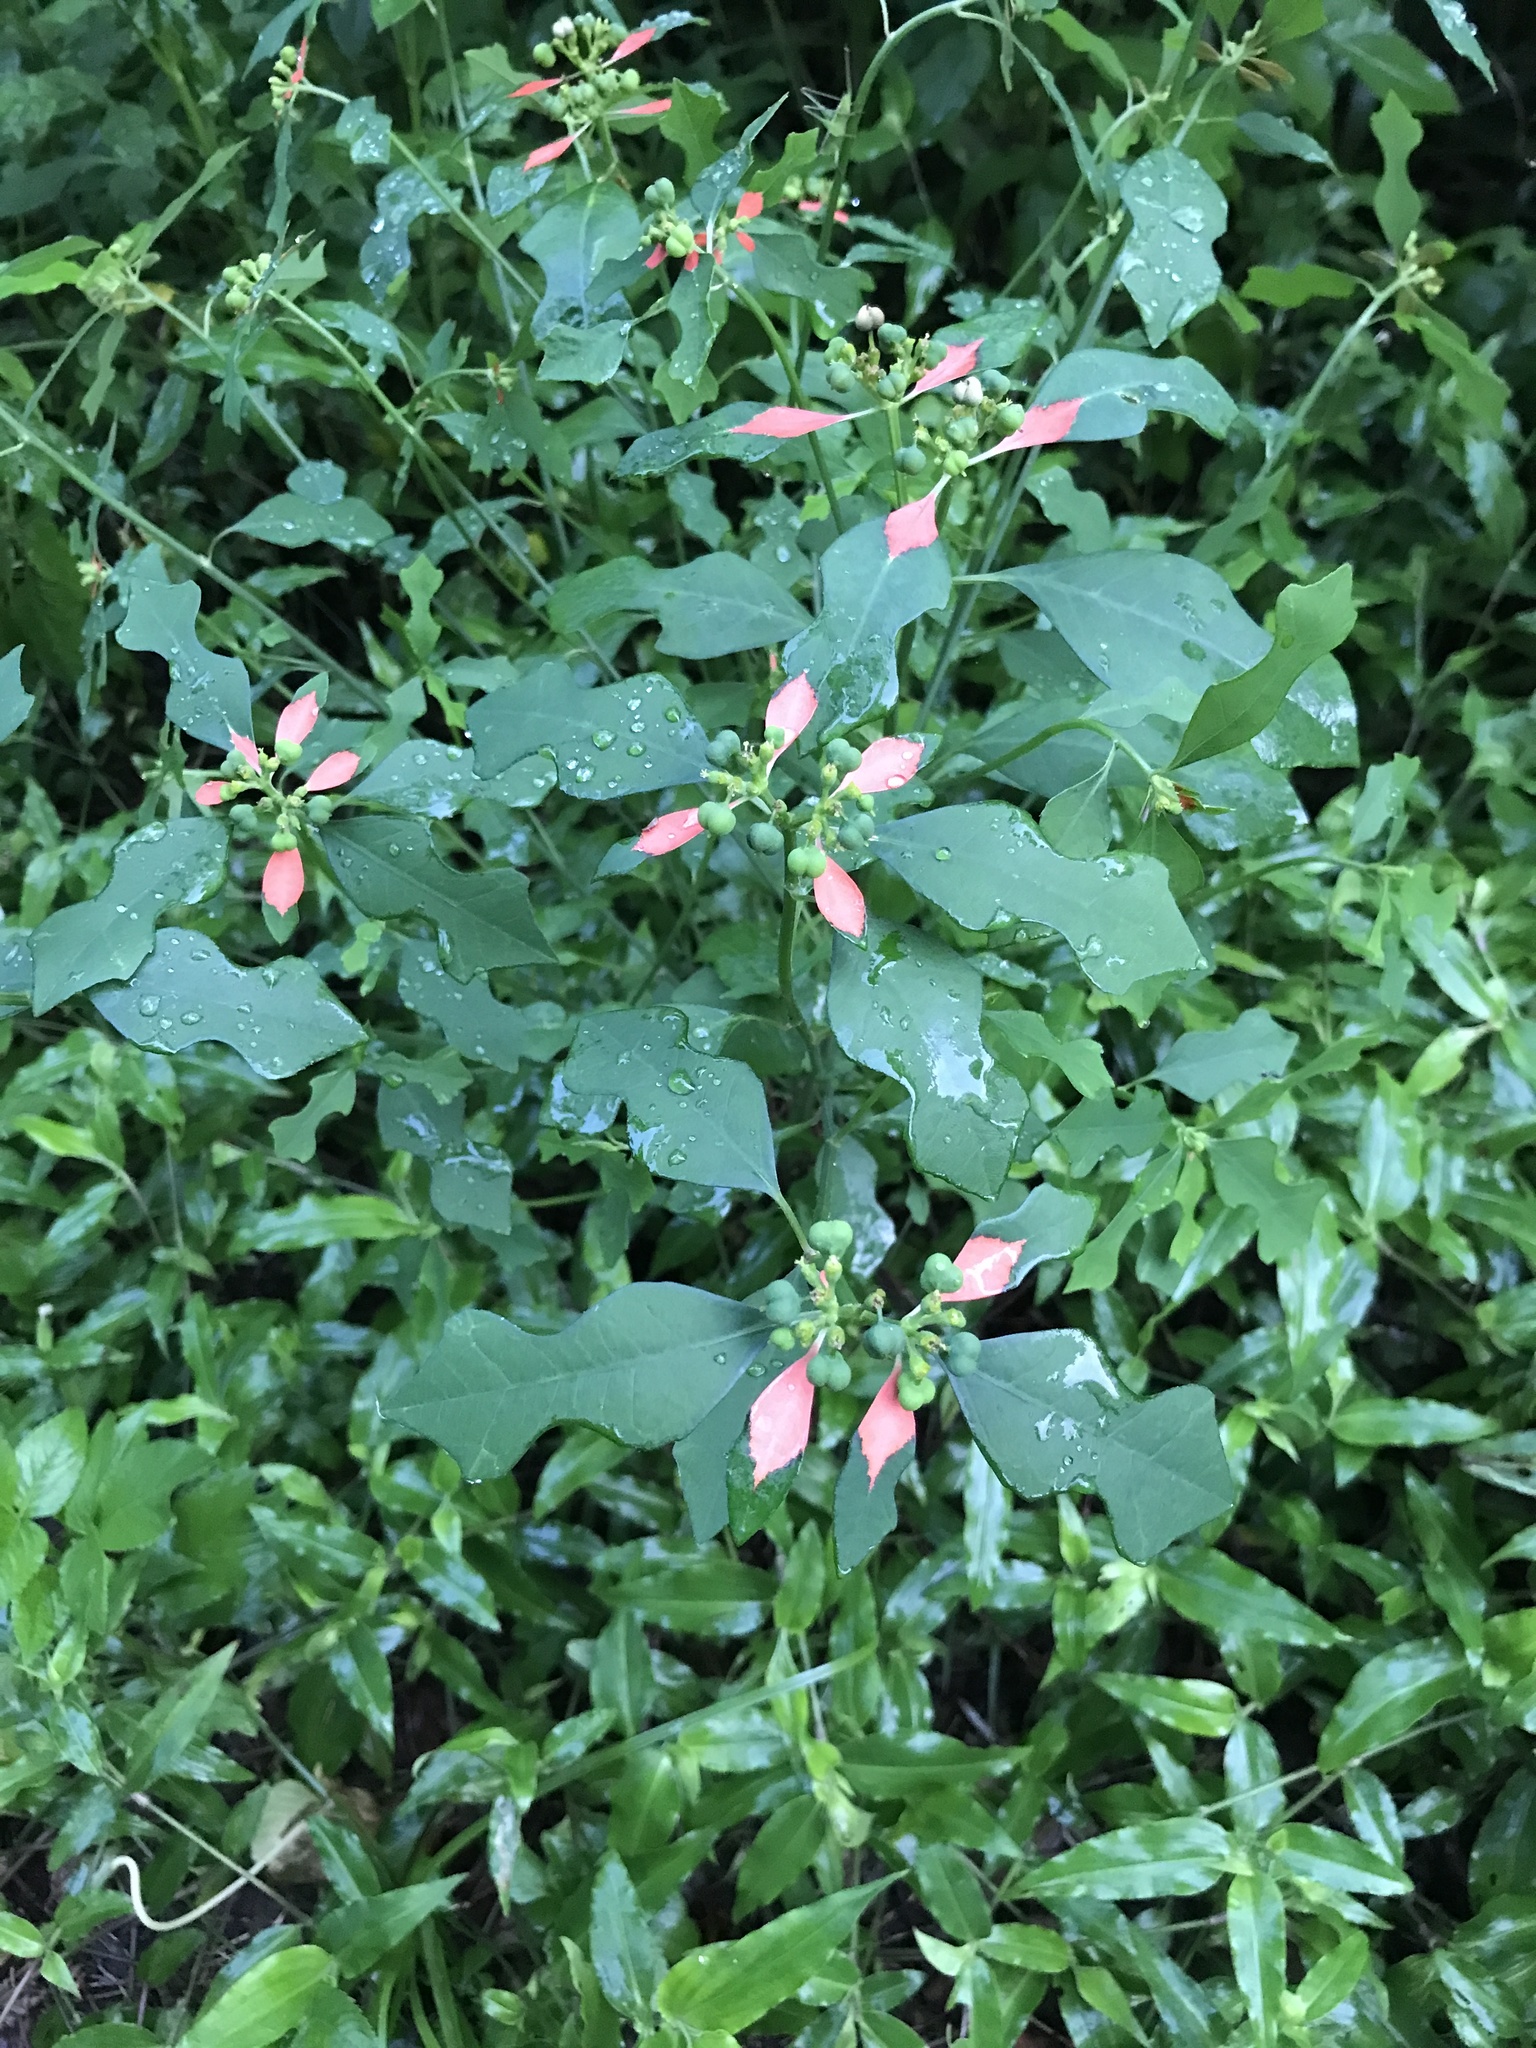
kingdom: Plantae
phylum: Tracheophyta
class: Magnoliopsida
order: Malpighiales
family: Euphorbiaceae
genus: Euphorbia
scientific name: Euphorbia heterophylla
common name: Mexican fireplant
